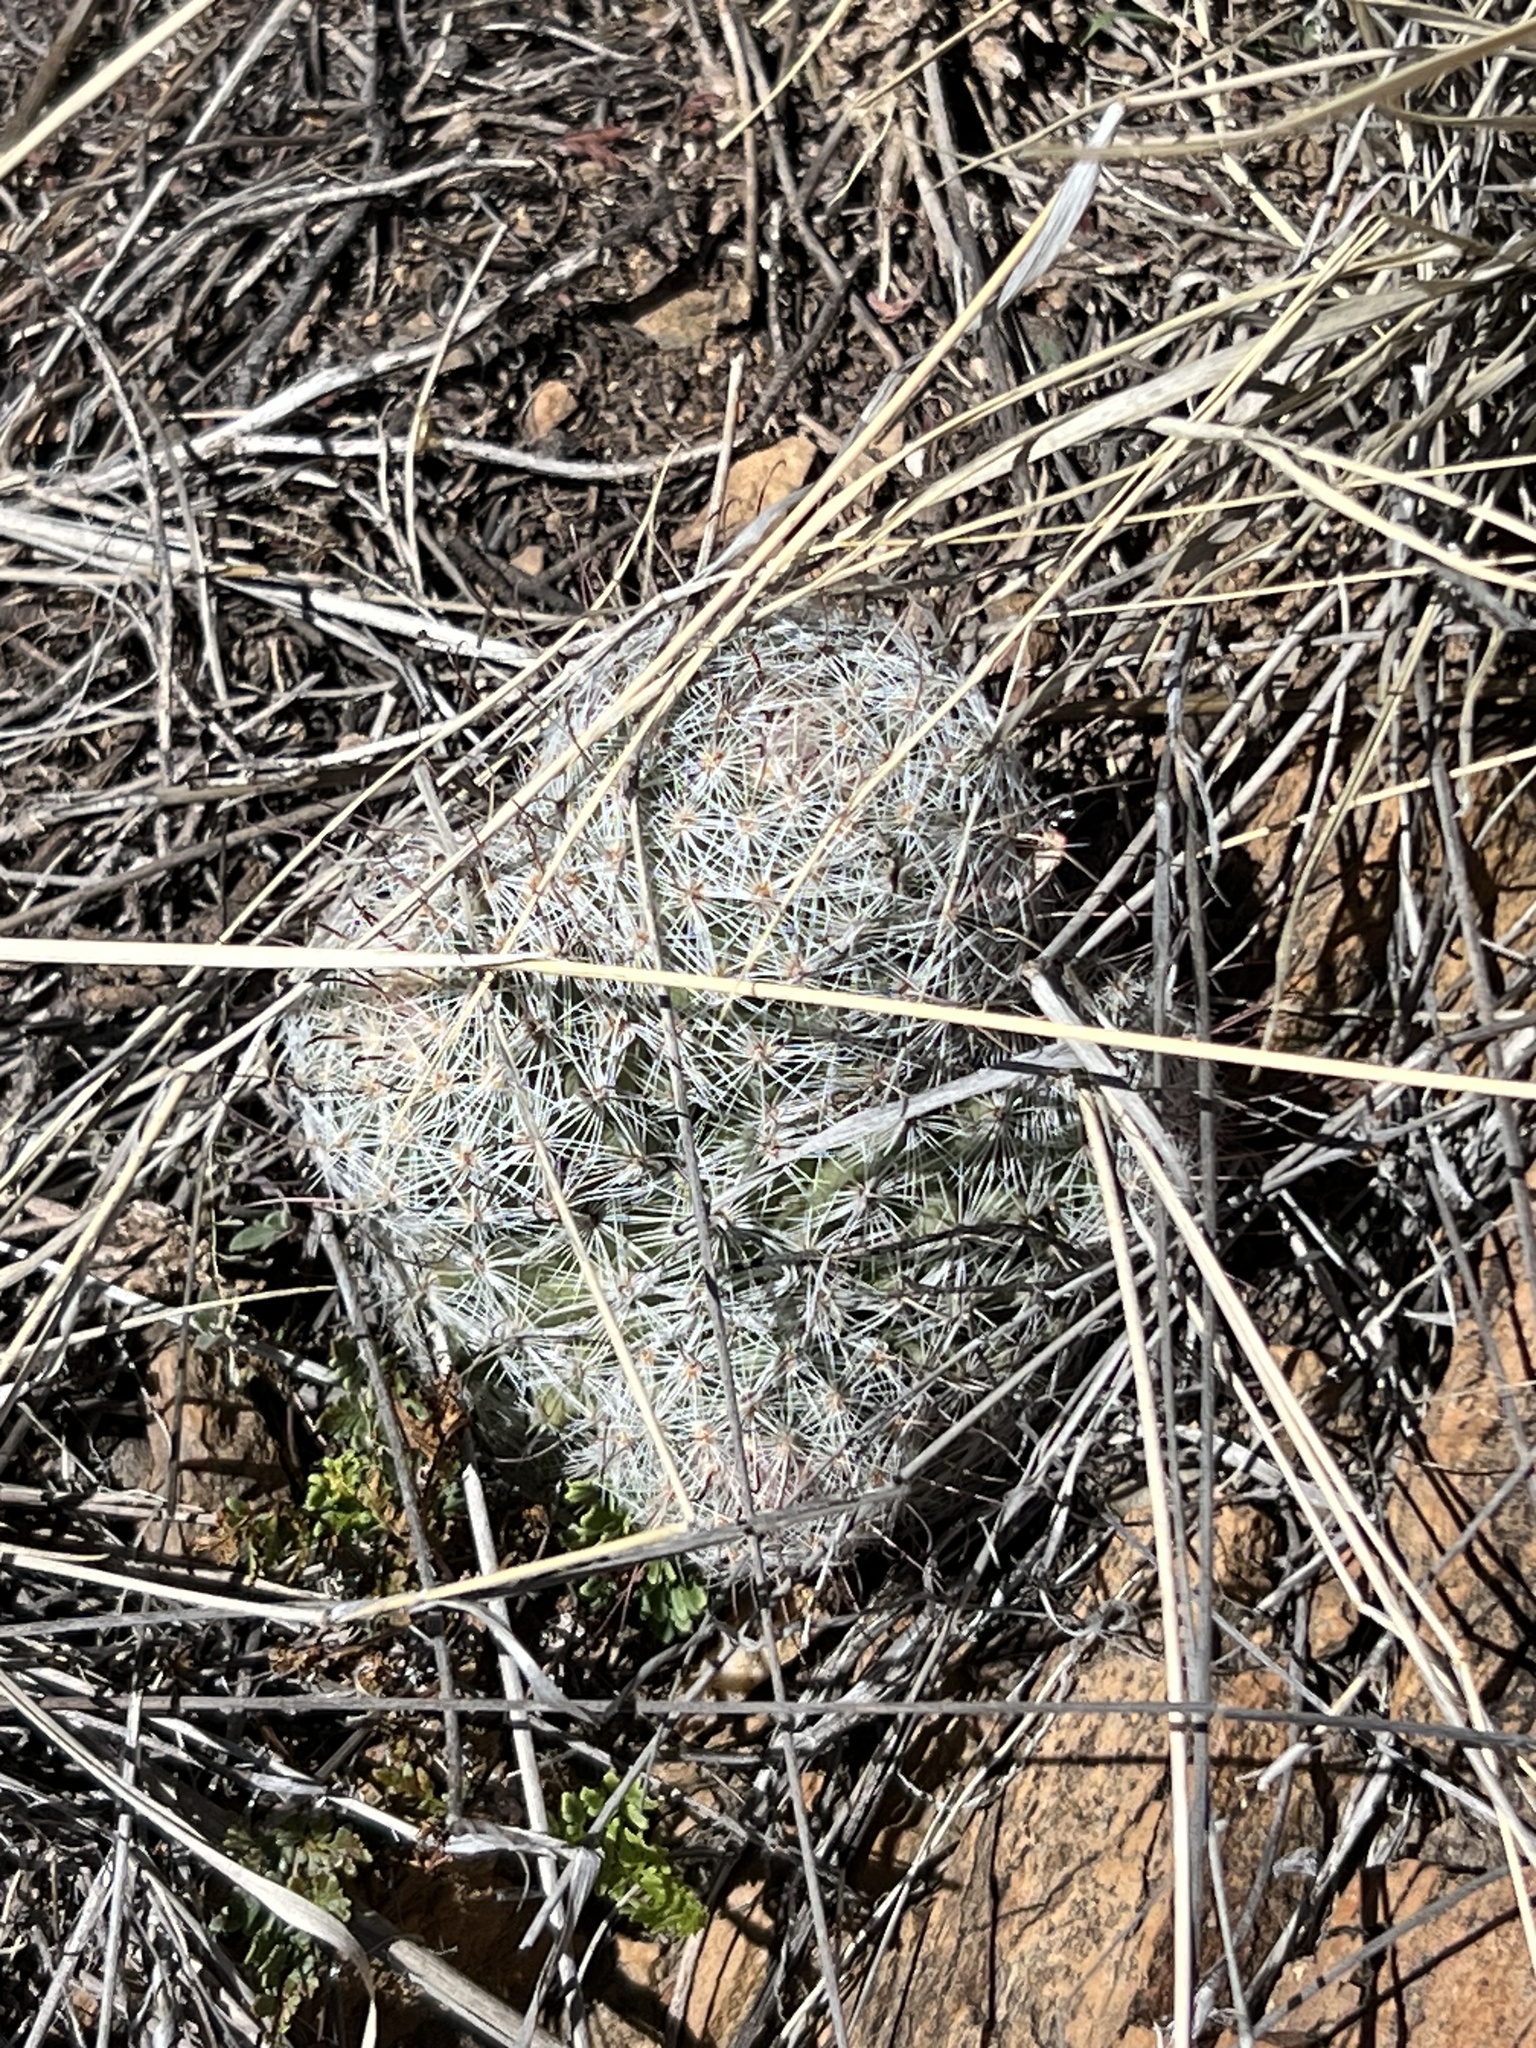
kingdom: Plantae
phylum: Tracheophyta
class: Magnoliopsida
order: Caryophyllales
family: Cactaceae
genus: Cochemiea
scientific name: Cochemiea grahamii
